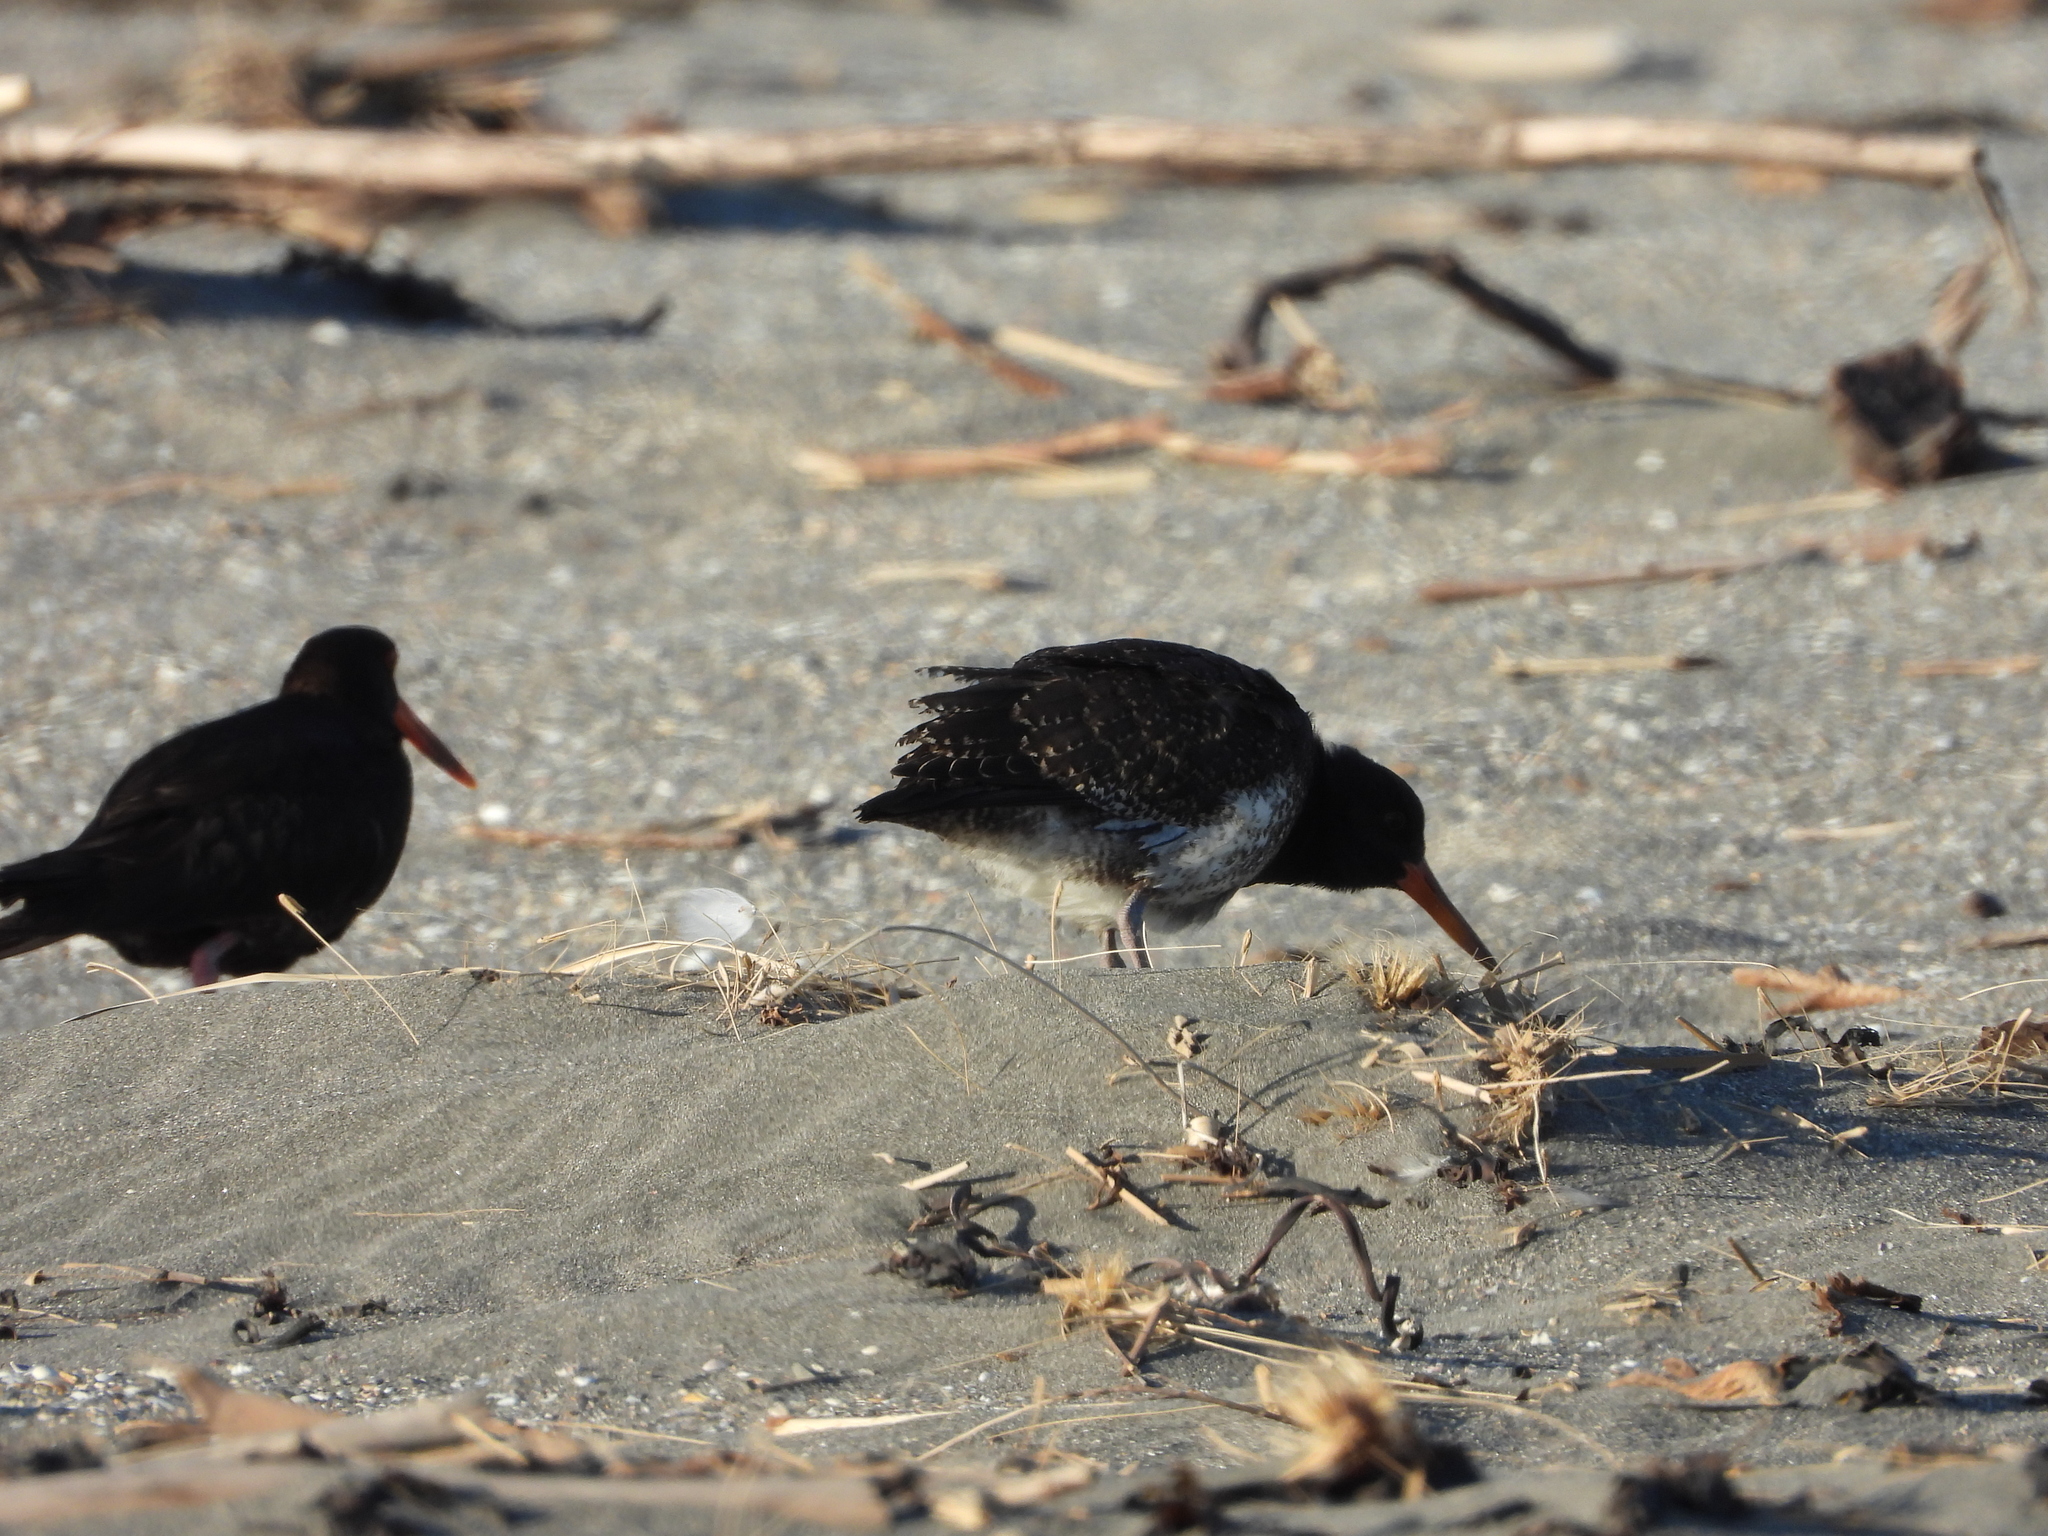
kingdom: Animalia
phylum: Chordata
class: Aves
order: Charadriiformes
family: Haematopodidae
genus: Haematopus
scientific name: Haematopus unicolor
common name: Variable oystercatcher
